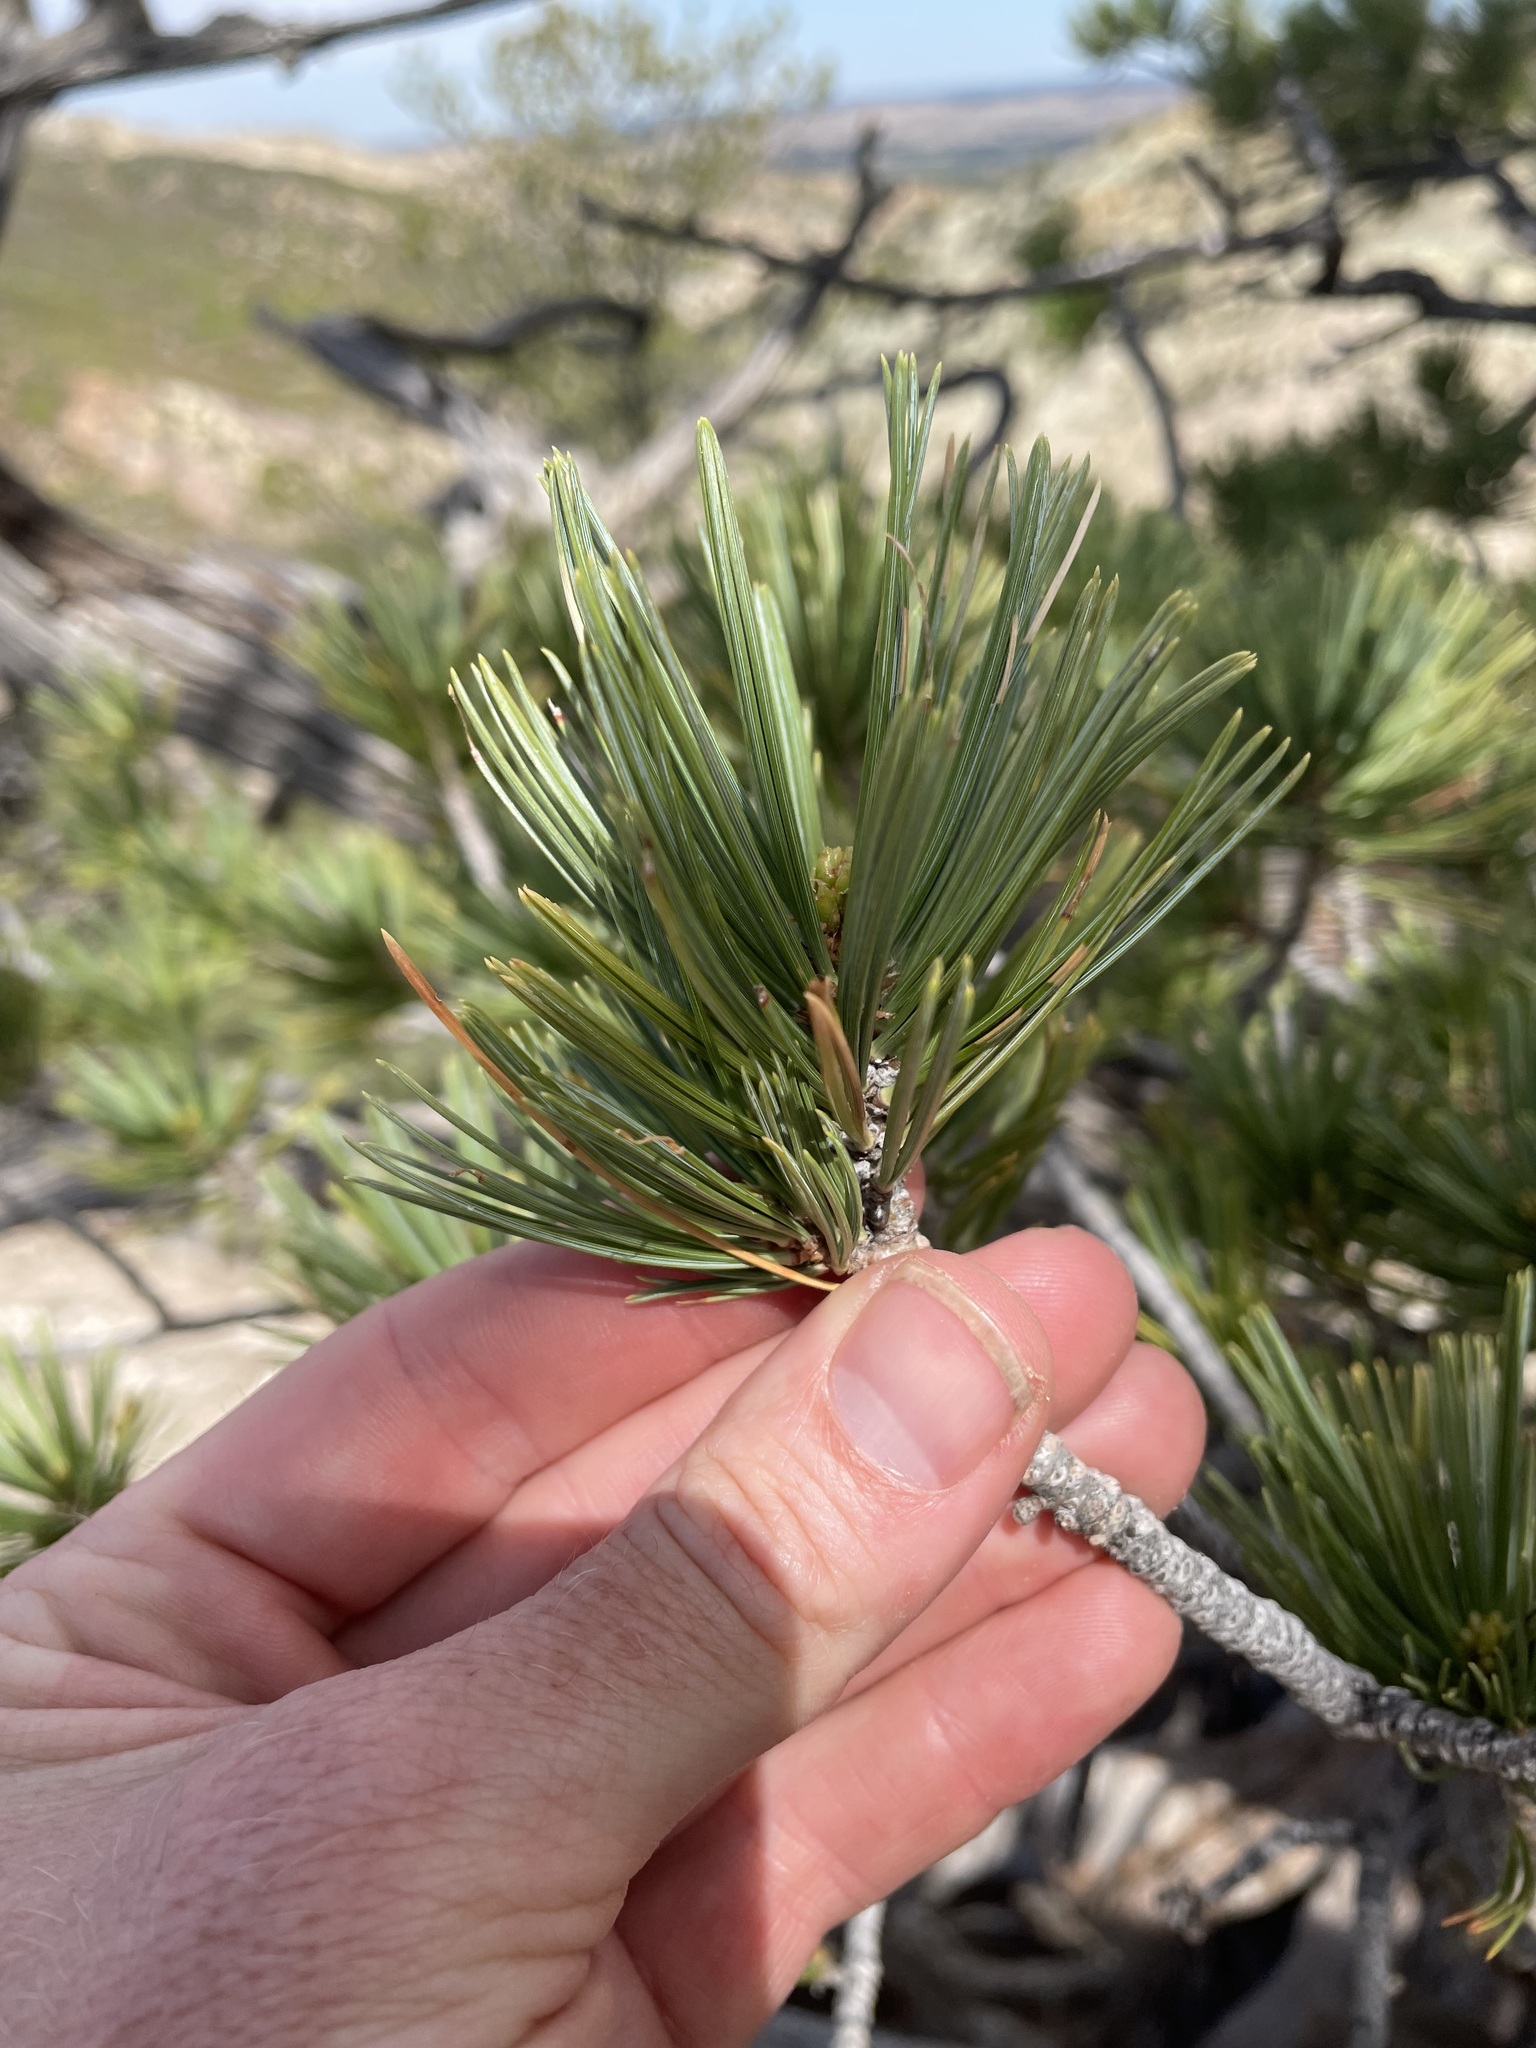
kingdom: Plantae
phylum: Tracheophyta
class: Pinopsida
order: Pinales
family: Pinaceae
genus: Pinus
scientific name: Pinus flexilis
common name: Limber pine
